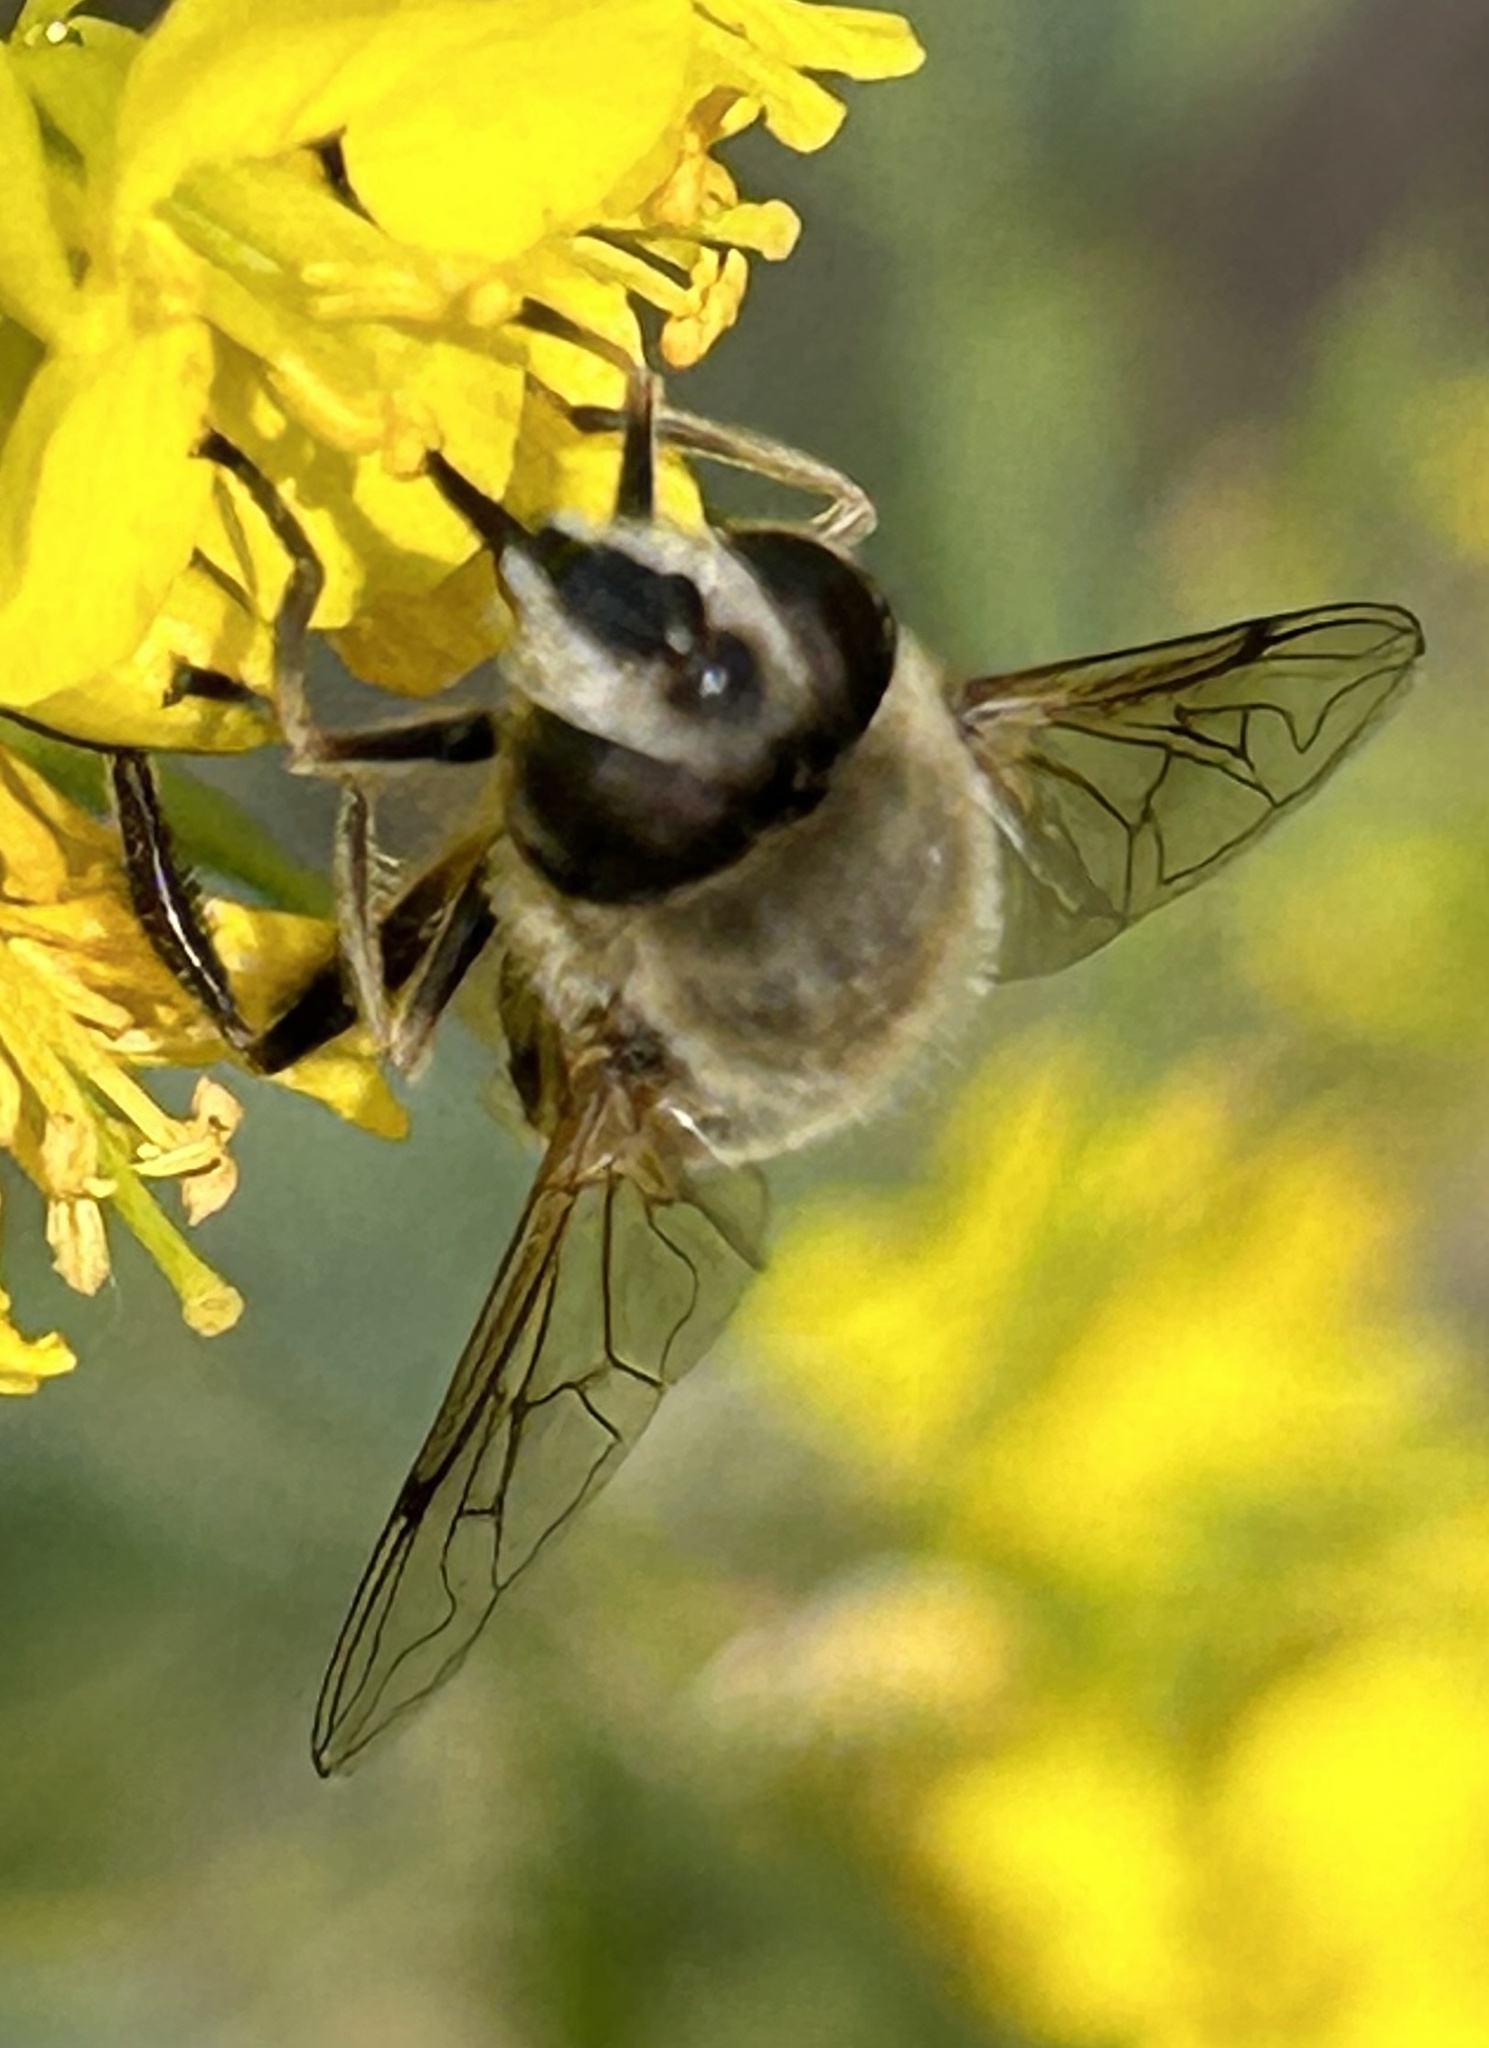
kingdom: Animalia
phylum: Arthropoda
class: Insecta
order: Diptera
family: Syrphidae
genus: Eristalis
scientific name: Eristalis tenax
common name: Drone fly
